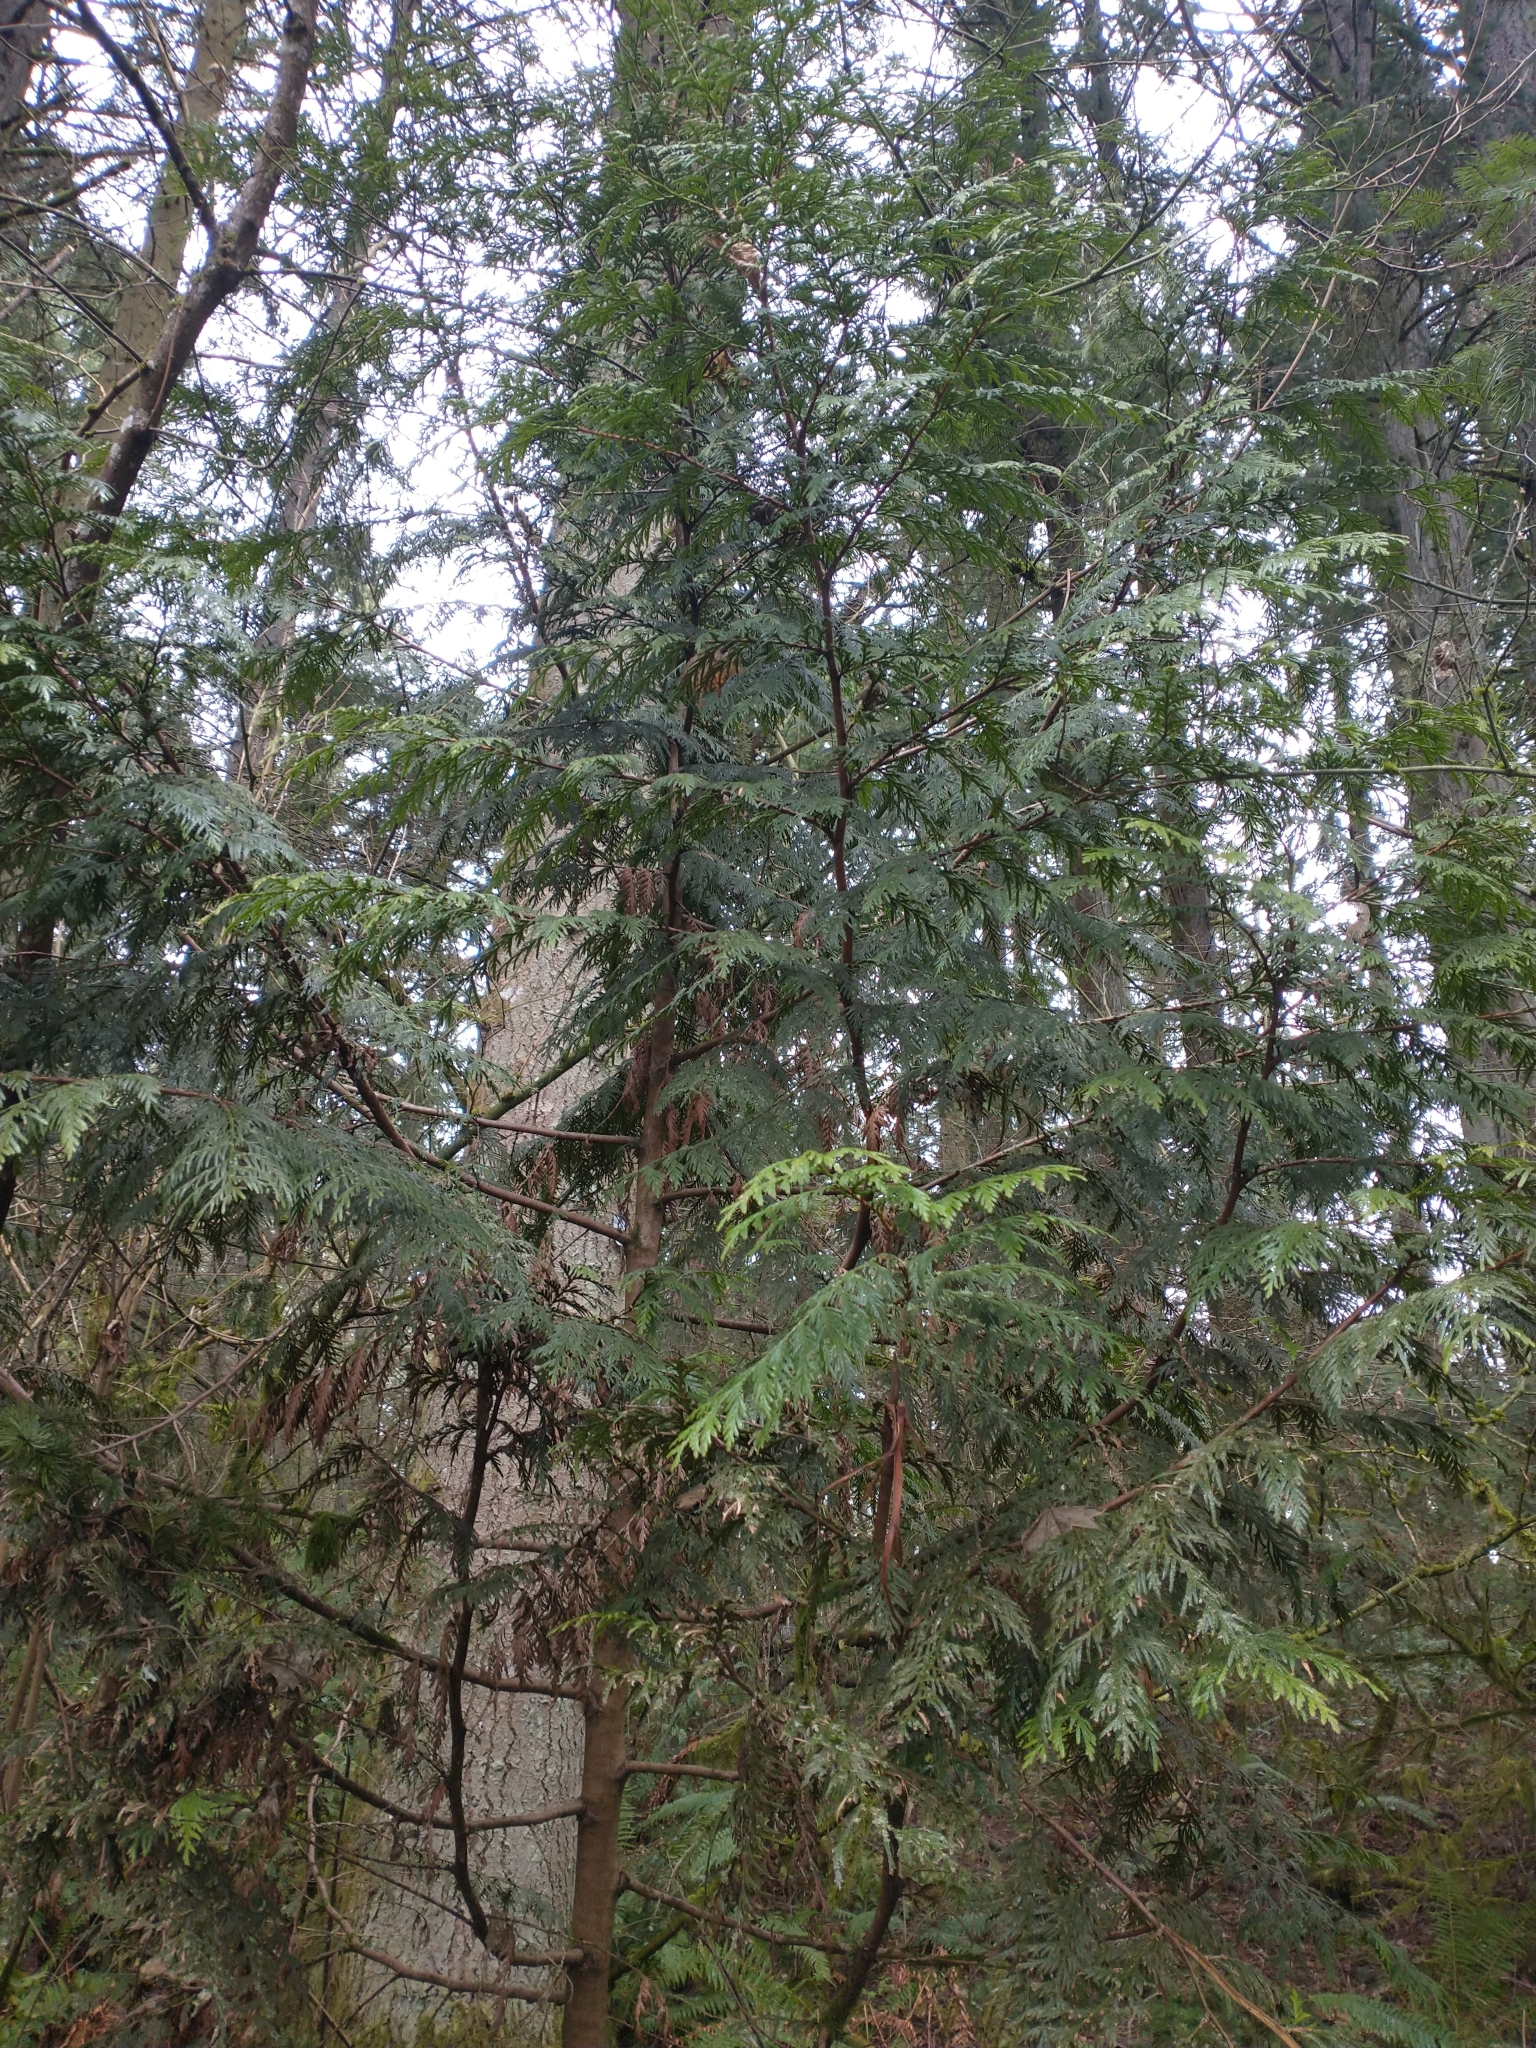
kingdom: Plantae
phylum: Tracheophyta
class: Pinopsida
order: Pinales
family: Cupressaceae
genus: Thuja
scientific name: Thuja plicata
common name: Western red-cedar
